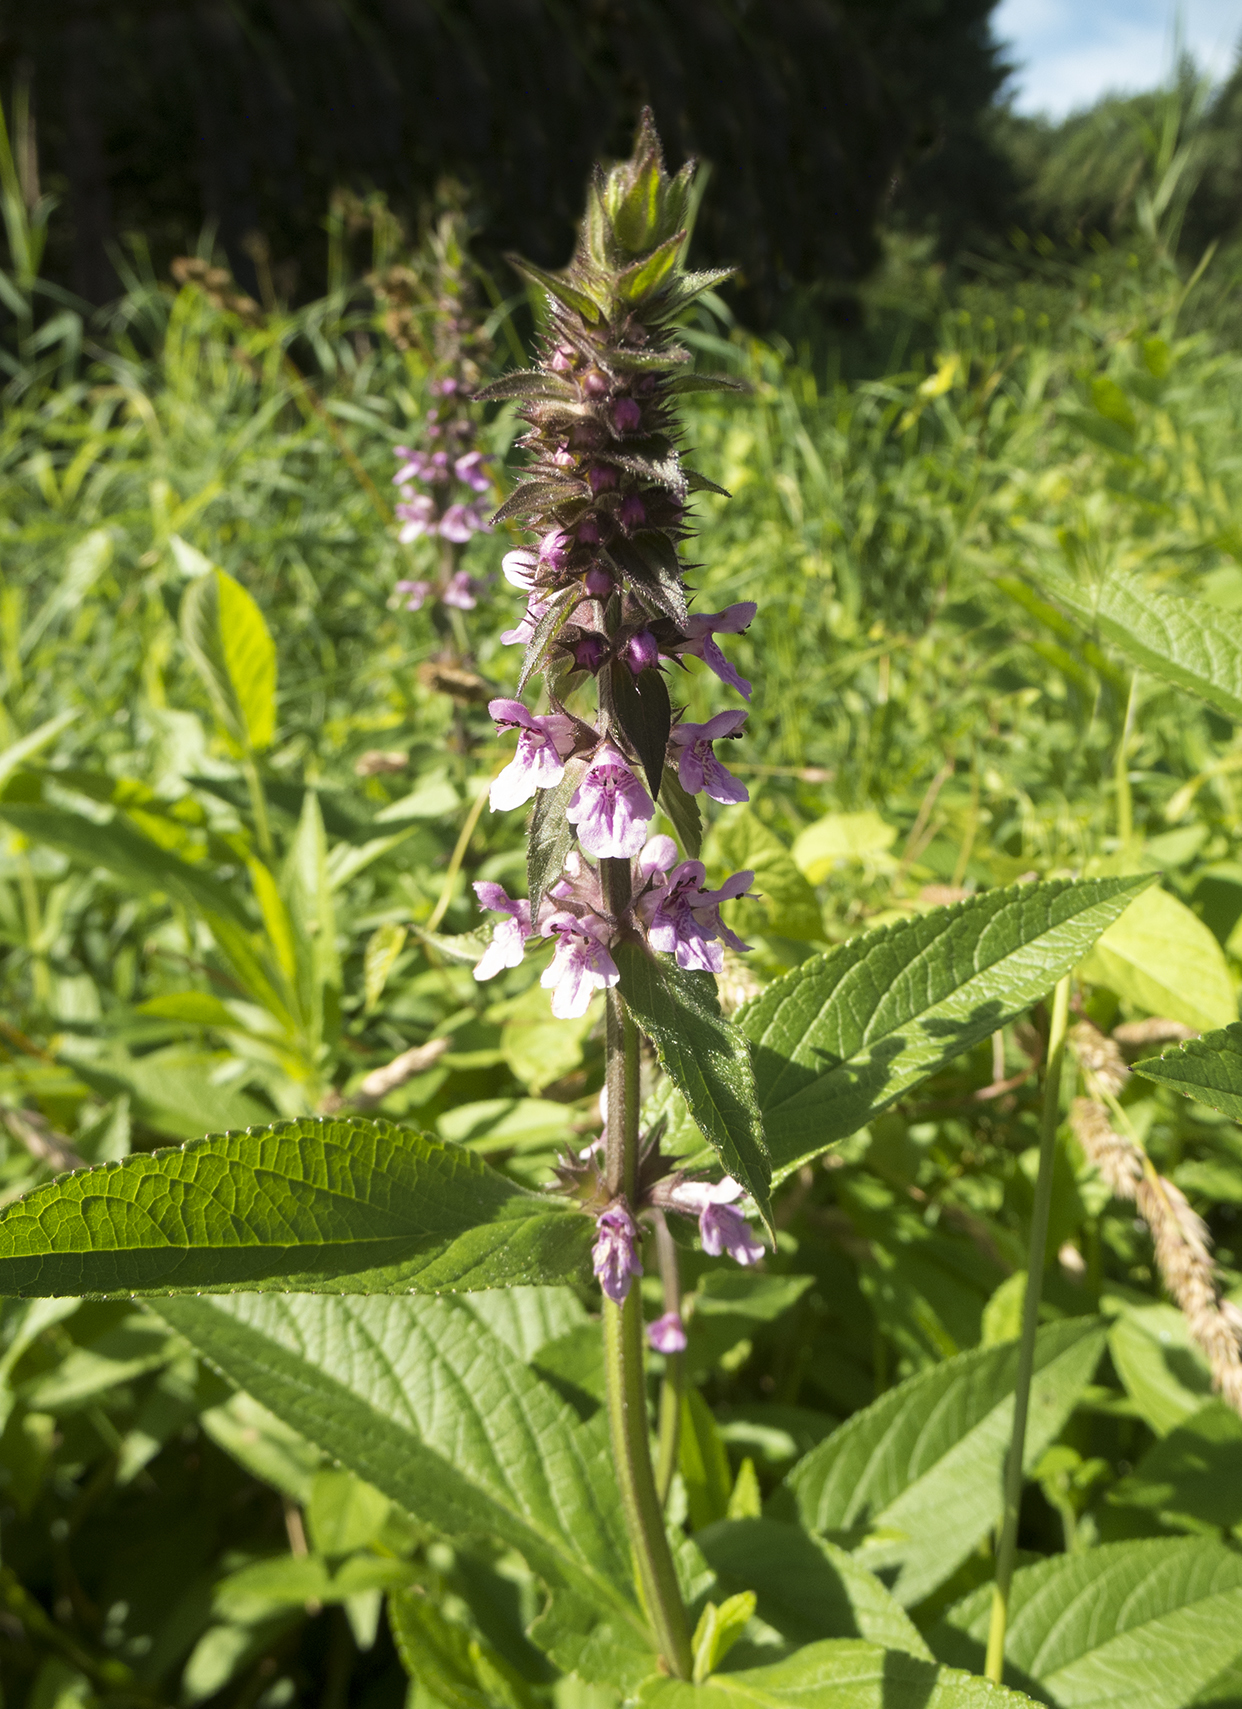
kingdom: Plantae
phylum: Tracheophyta
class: Magnoliopsida
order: Lamiales
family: Lamiaceae
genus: Stachys
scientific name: Stachys palustris
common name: Marsh woundwort
